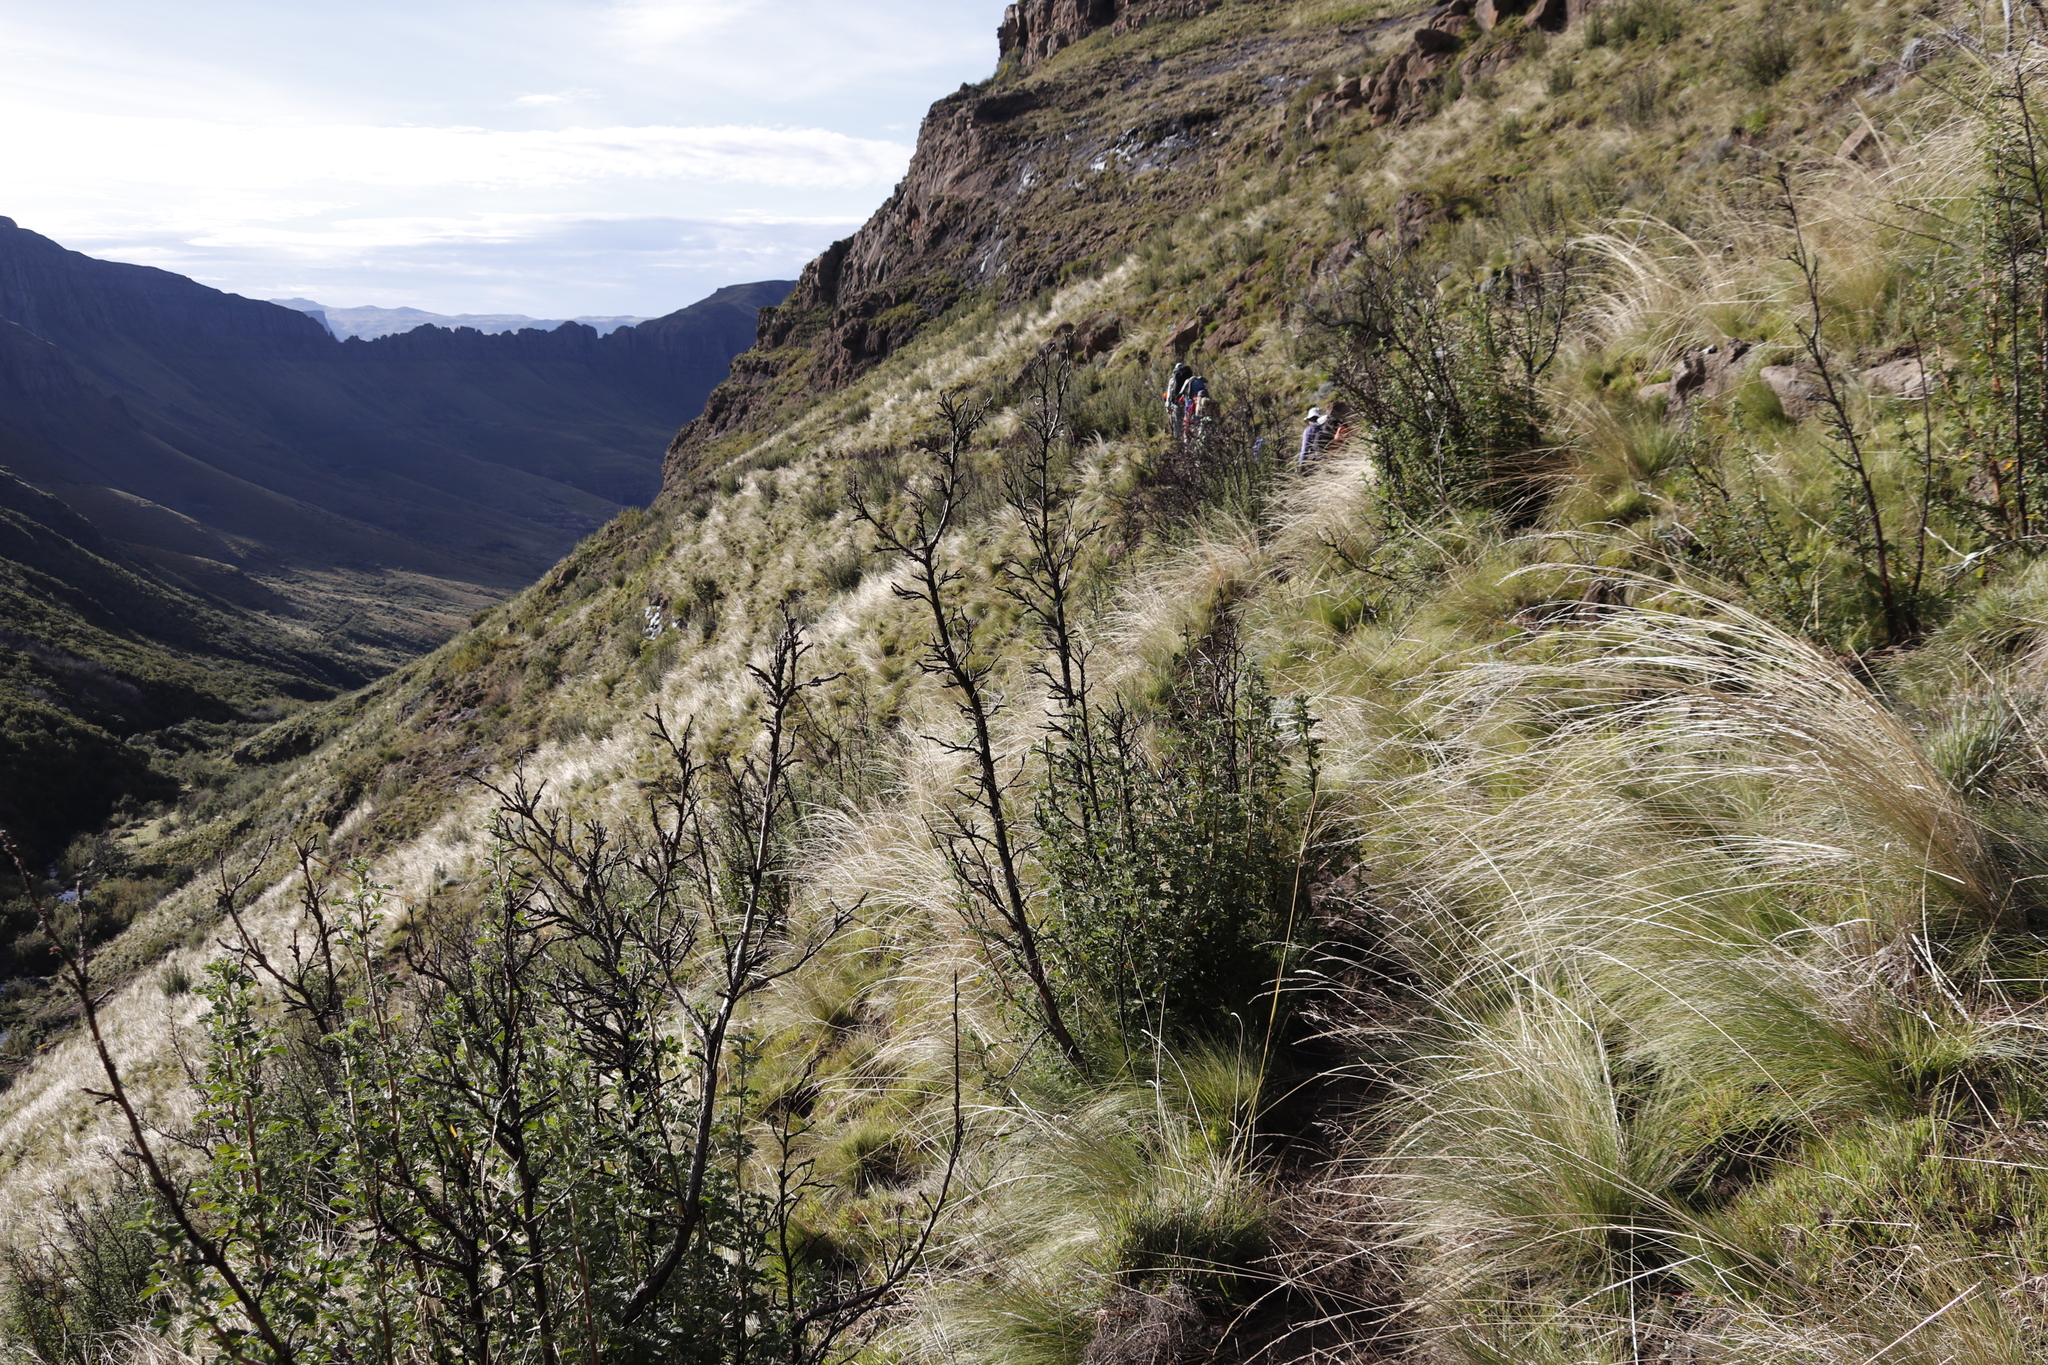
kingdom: Plantae
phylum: Tracheophyta
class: Magnoliopsida
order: Rosales
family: Rosaceae
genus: Leucosidea
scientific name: Leucosidea sericea
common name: Oldwood
